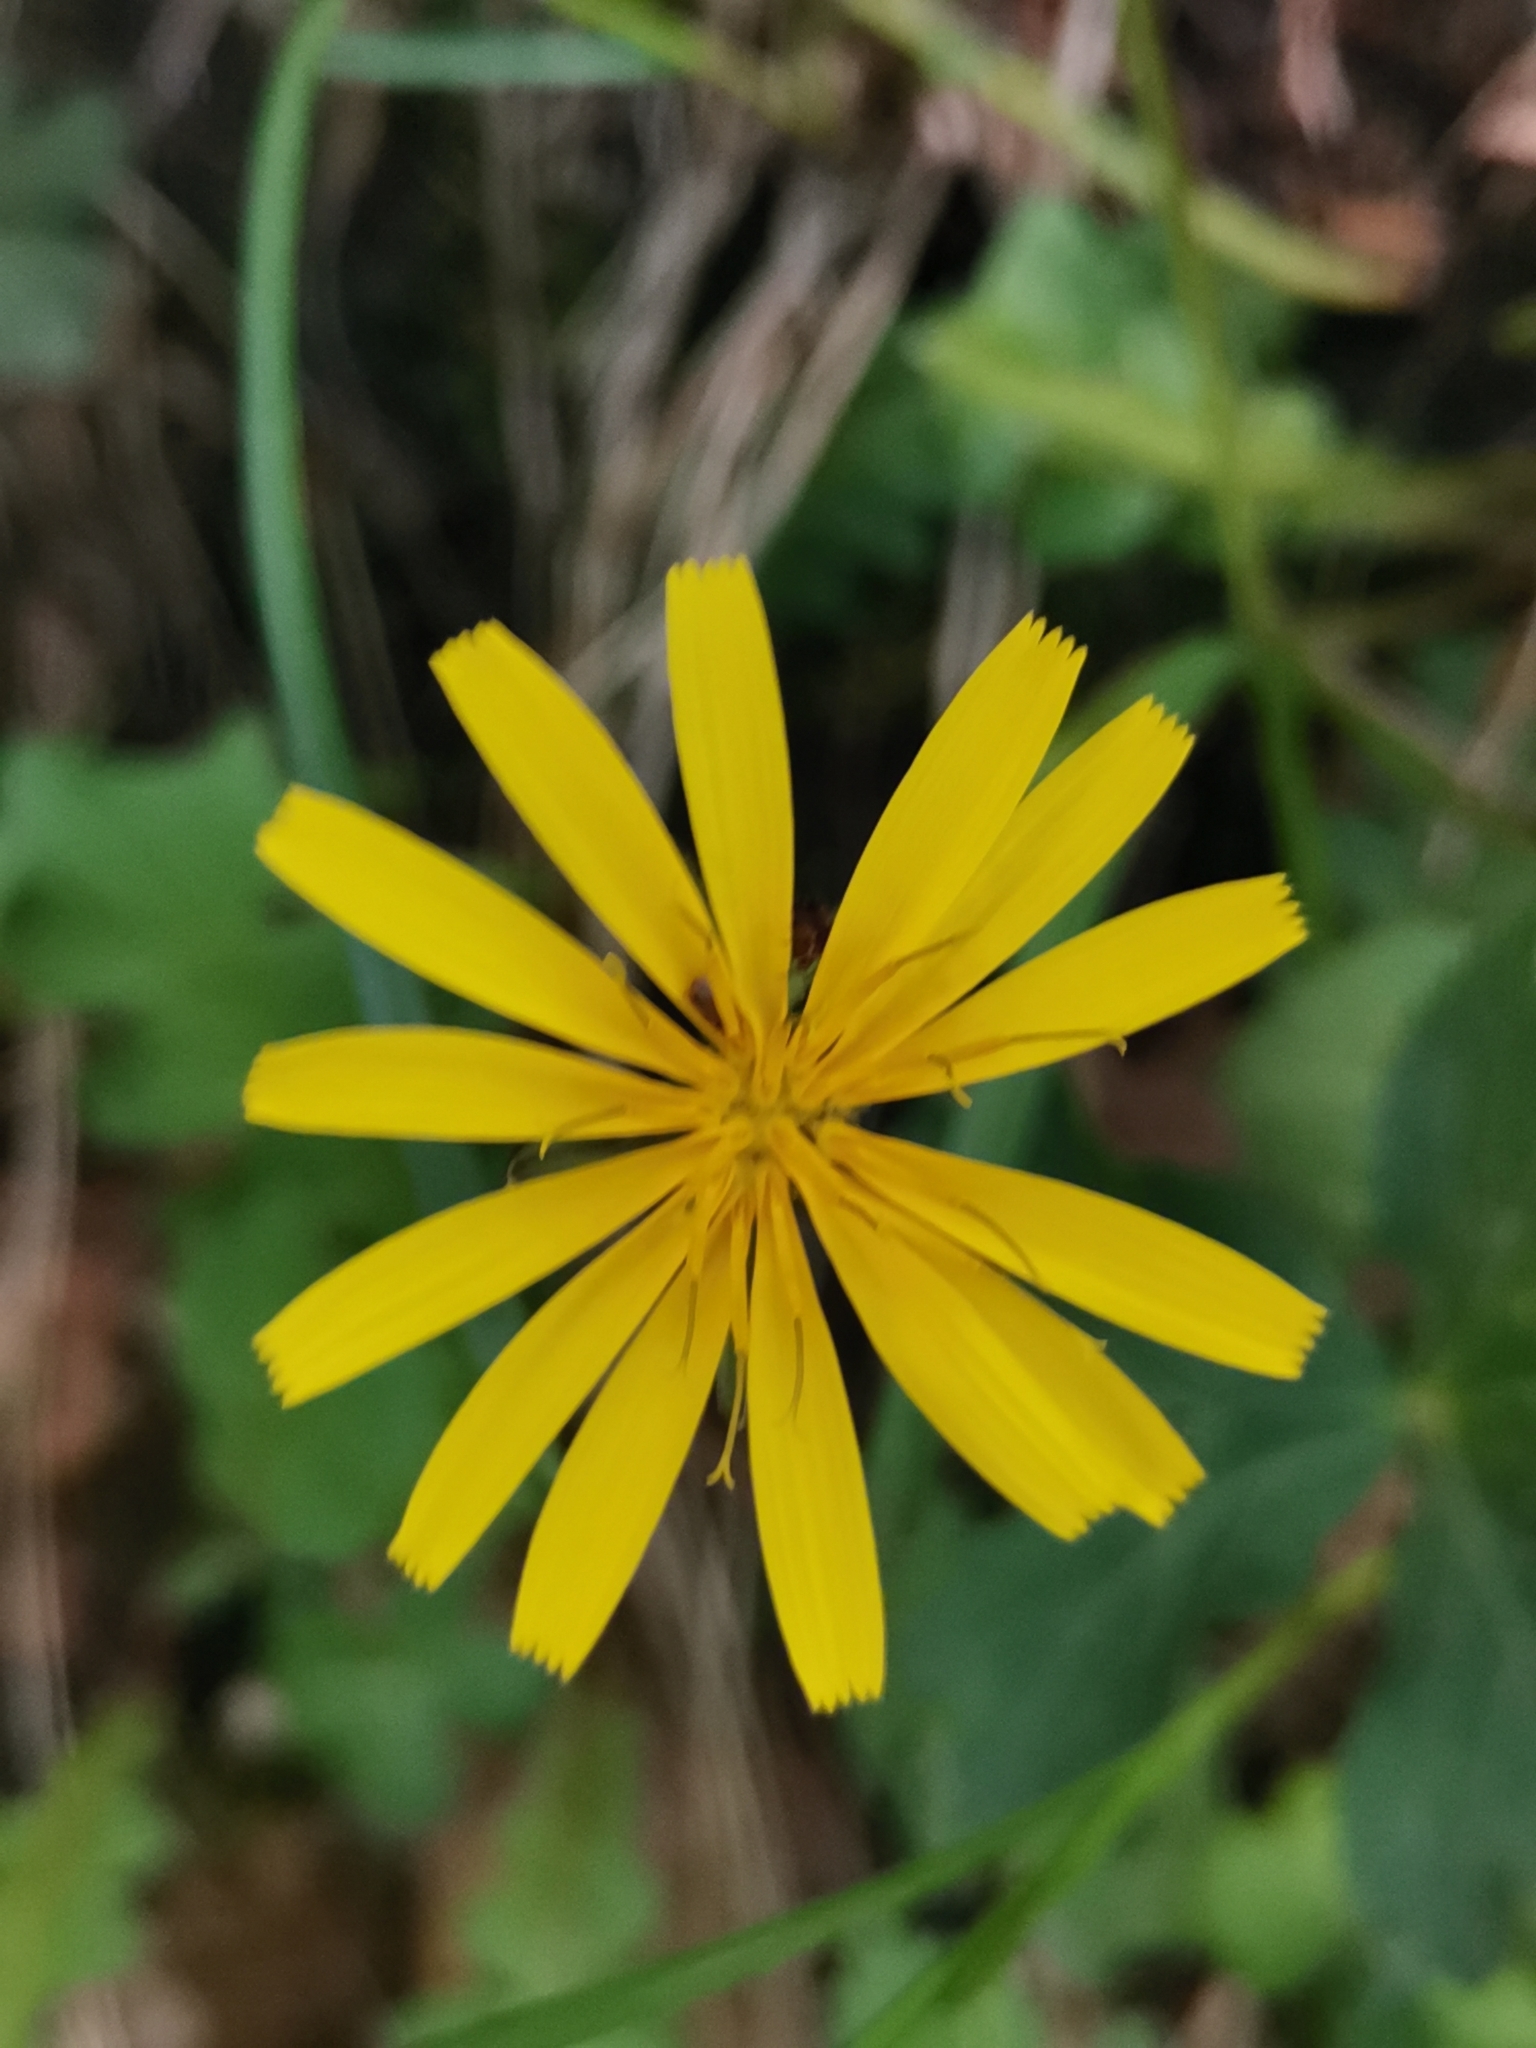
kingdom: Plantae
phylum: Tracheophyta
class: Magnoliopsida
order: Asterales
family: Asteraceae
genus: Aposeris
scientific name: Aposeris foetida
